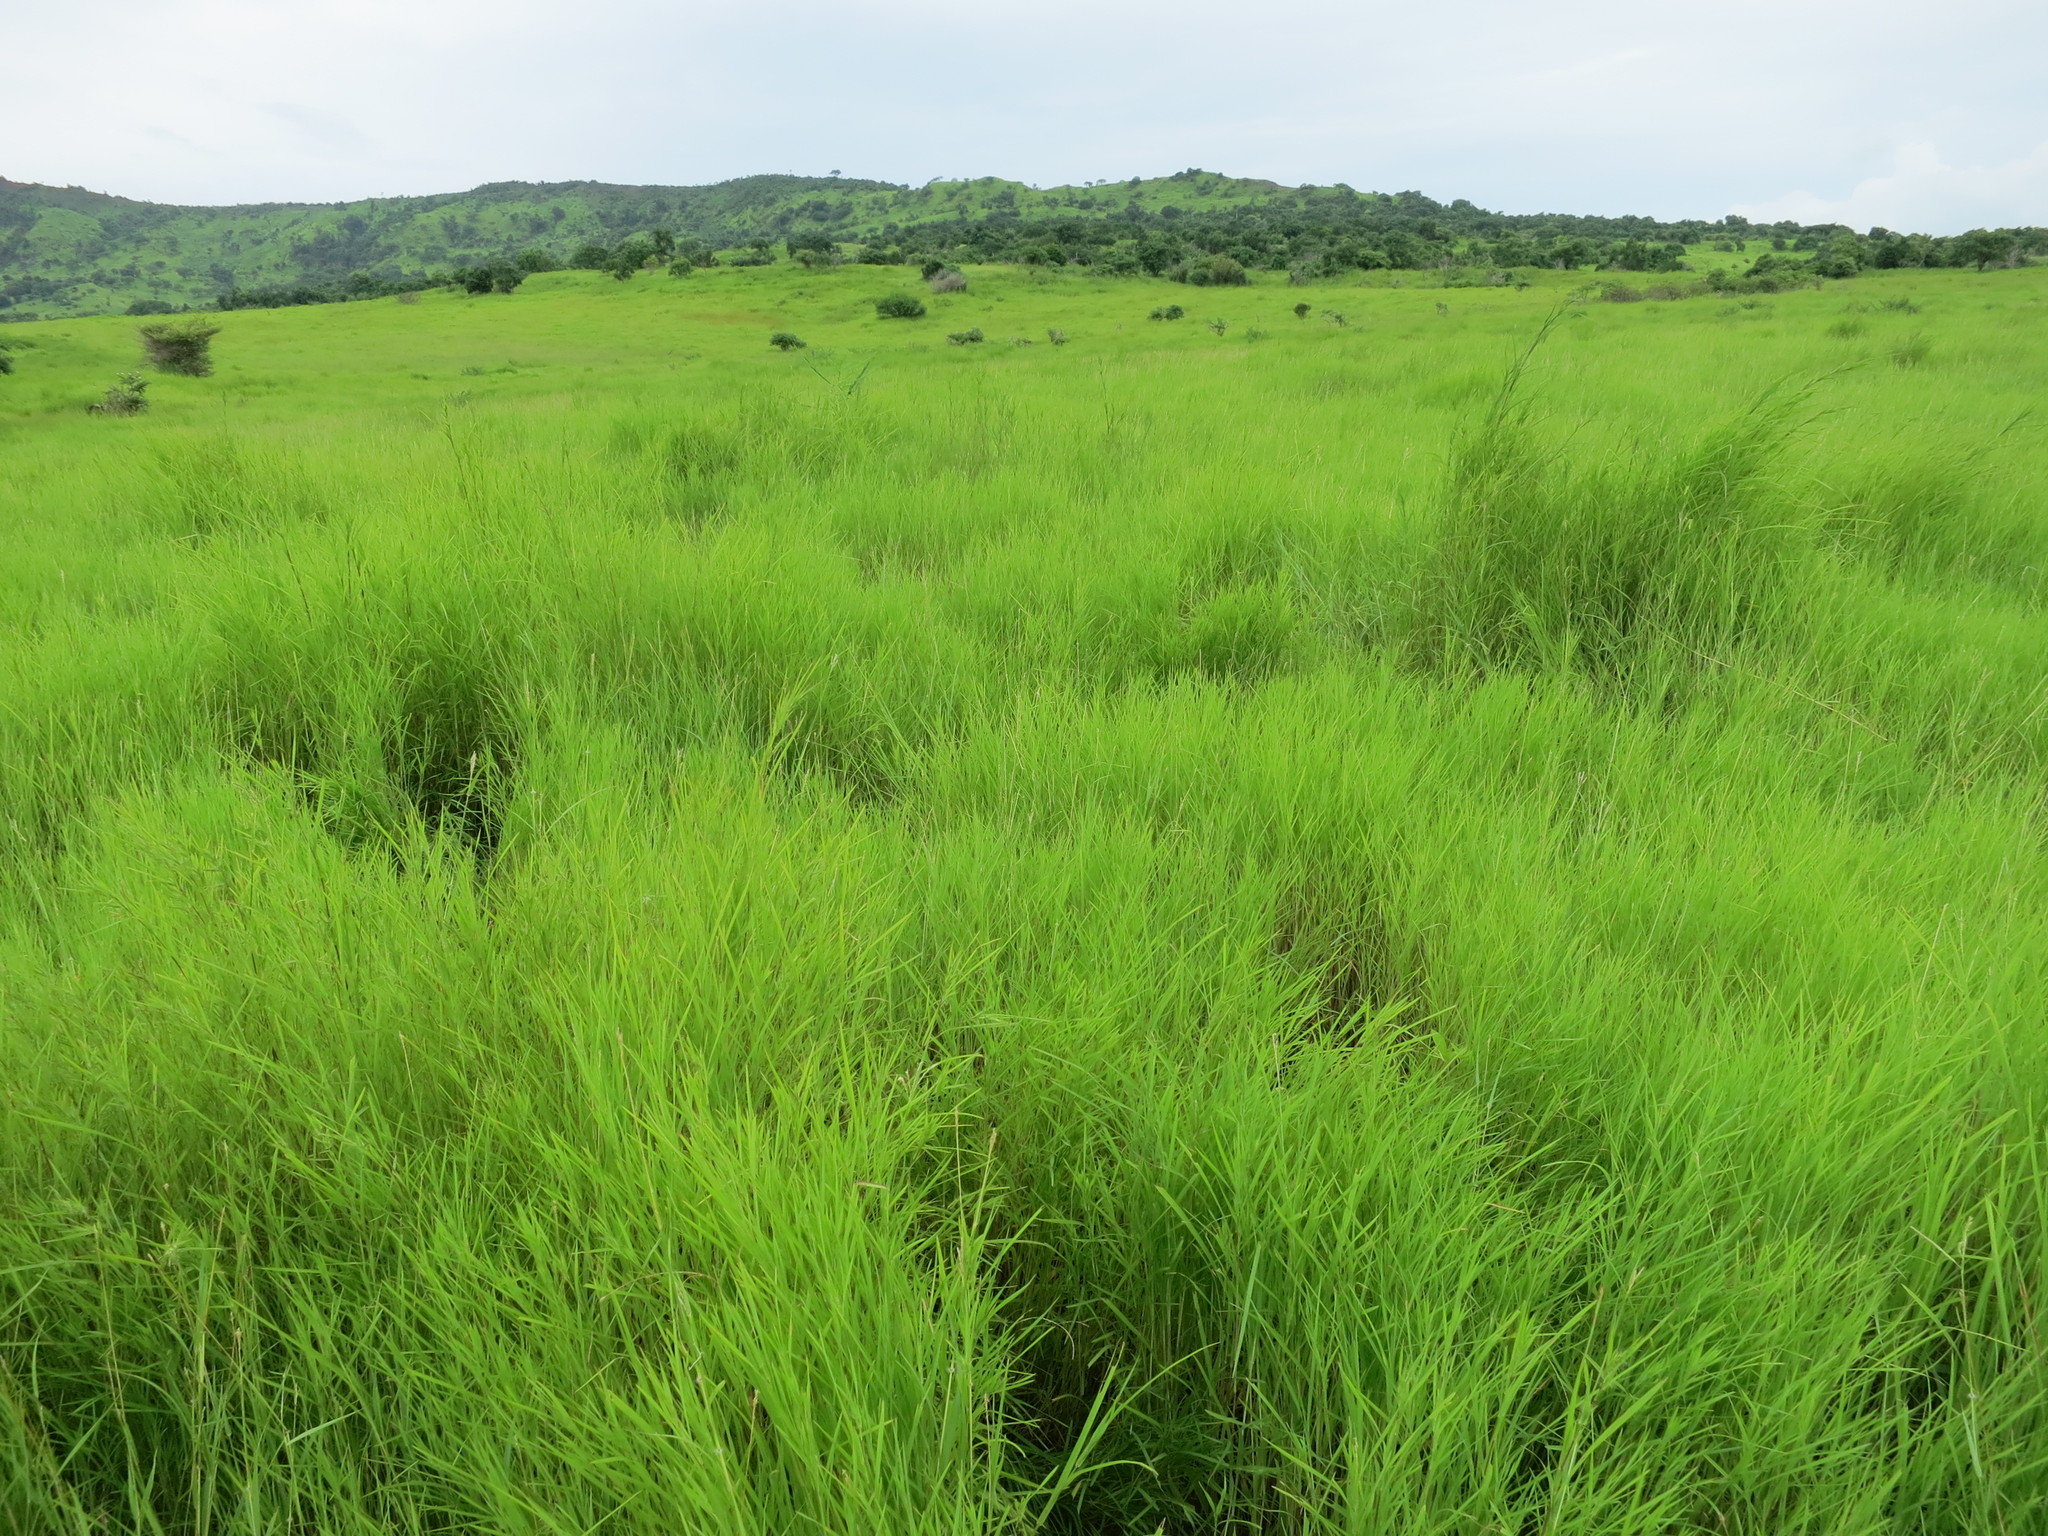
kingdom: Plantae
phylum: Tracheophyta
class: Liliopsida
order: Poales
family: Poaceae
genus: Themeda
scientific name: Themeda quadrivalvis
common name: Kangaroo grass
